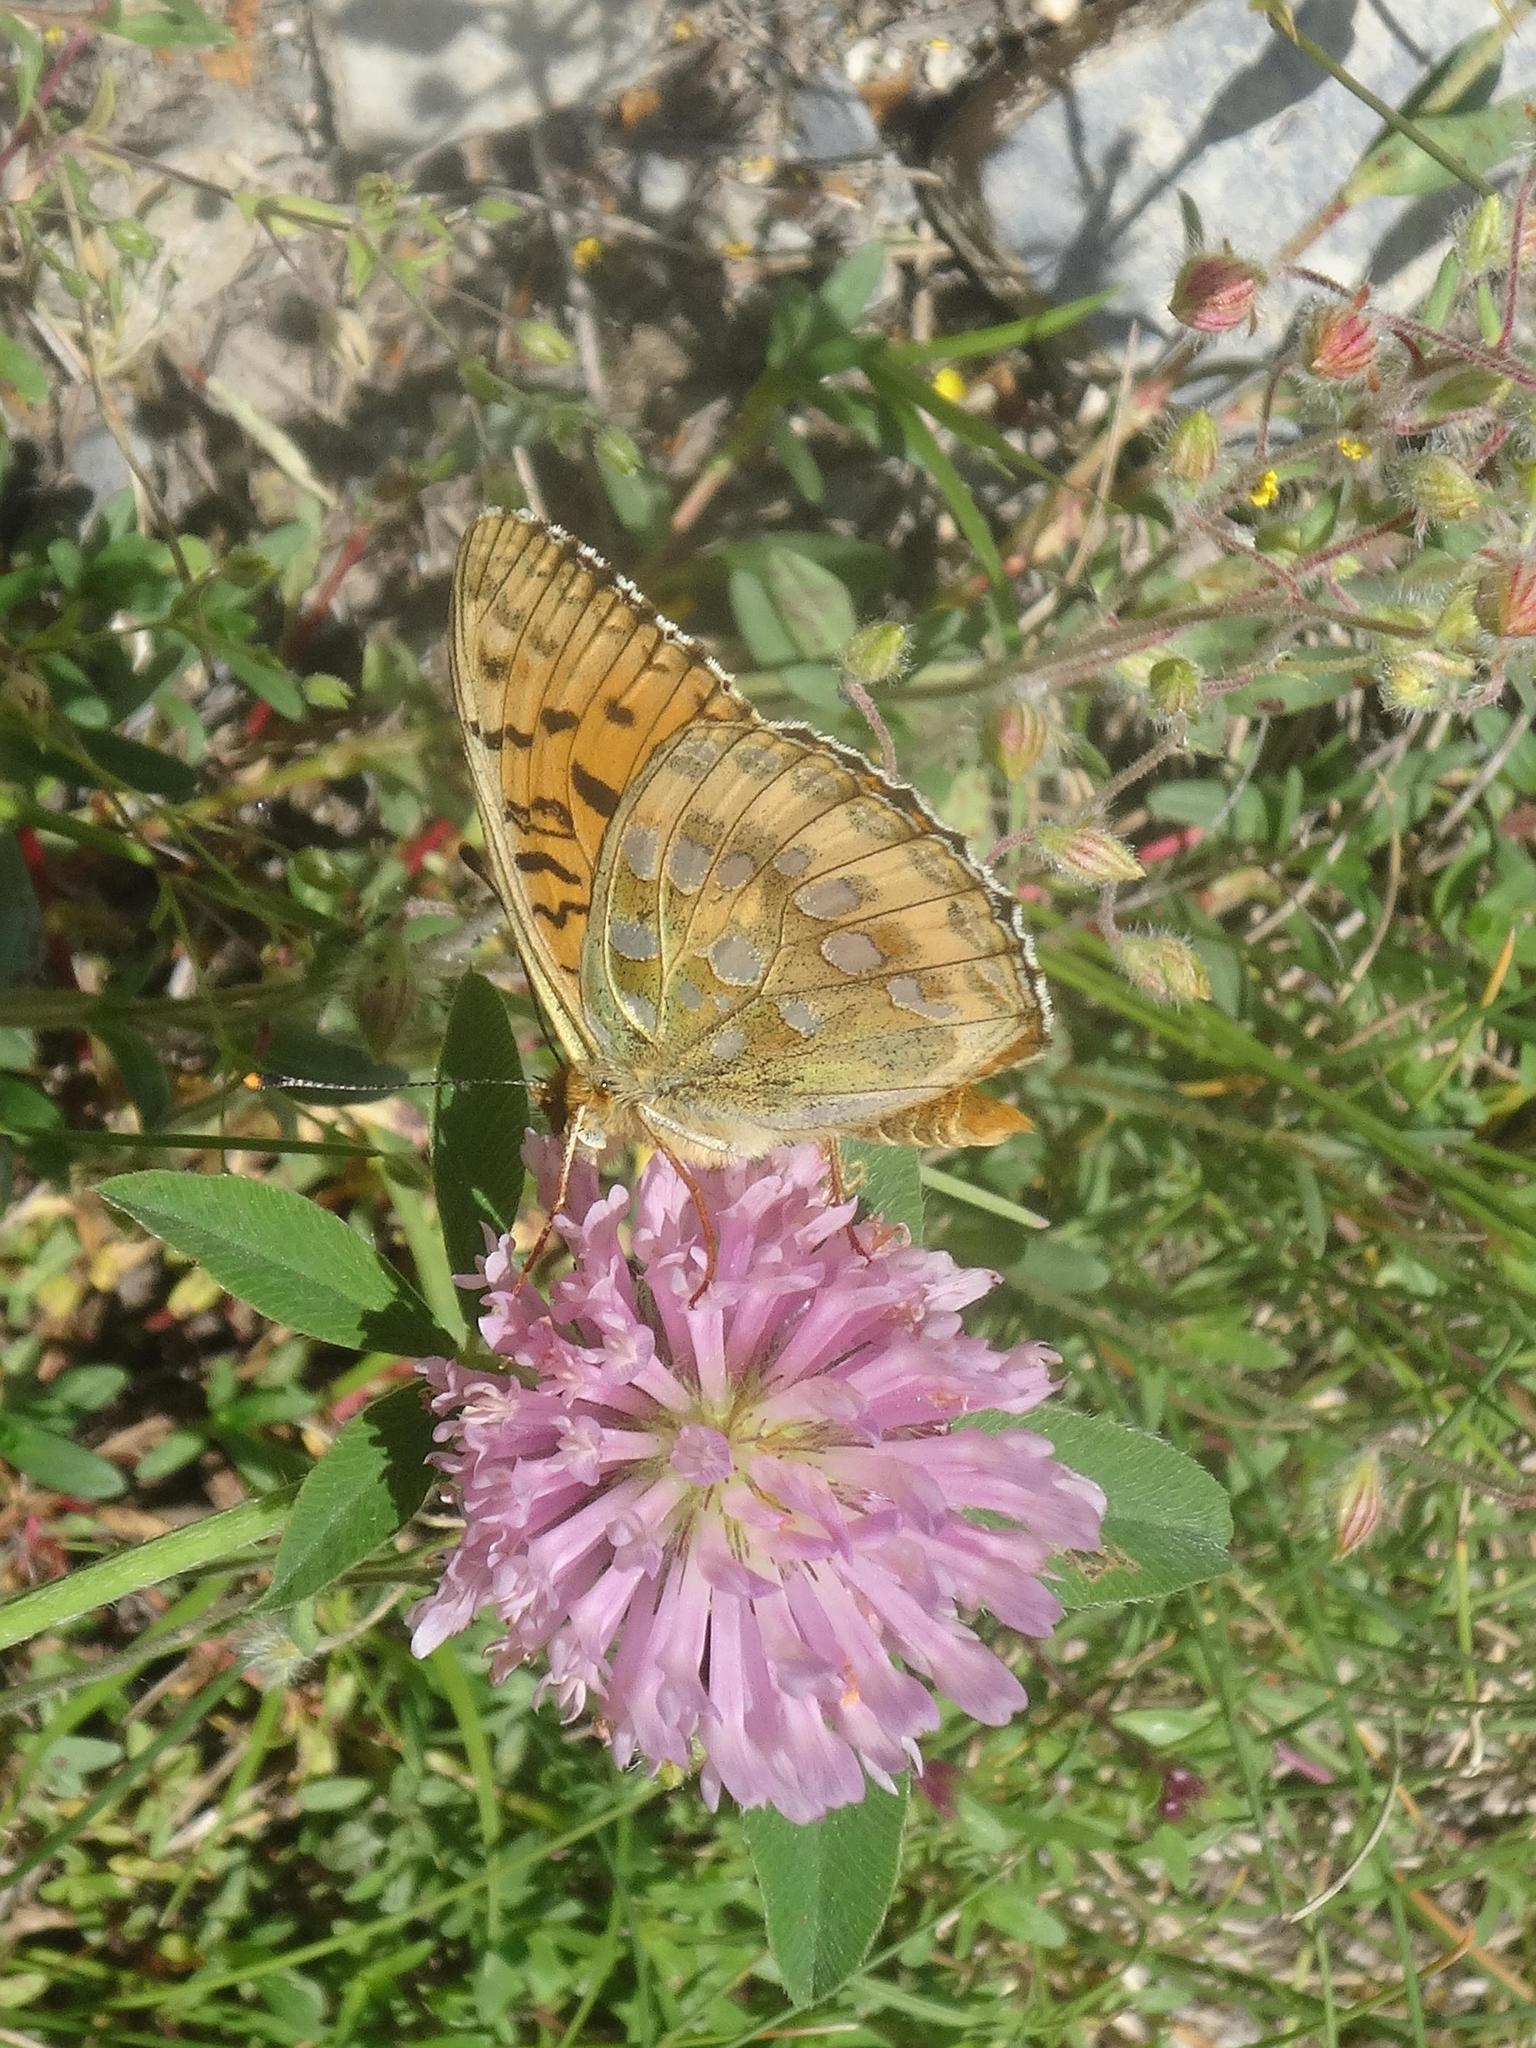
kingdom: Animalia
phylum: Arthropoda
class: Insecta
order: Lepidoptera
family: Nymphalidae
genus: Speyeria
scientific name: Speyeria aglaja
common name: Dark green fritillary
